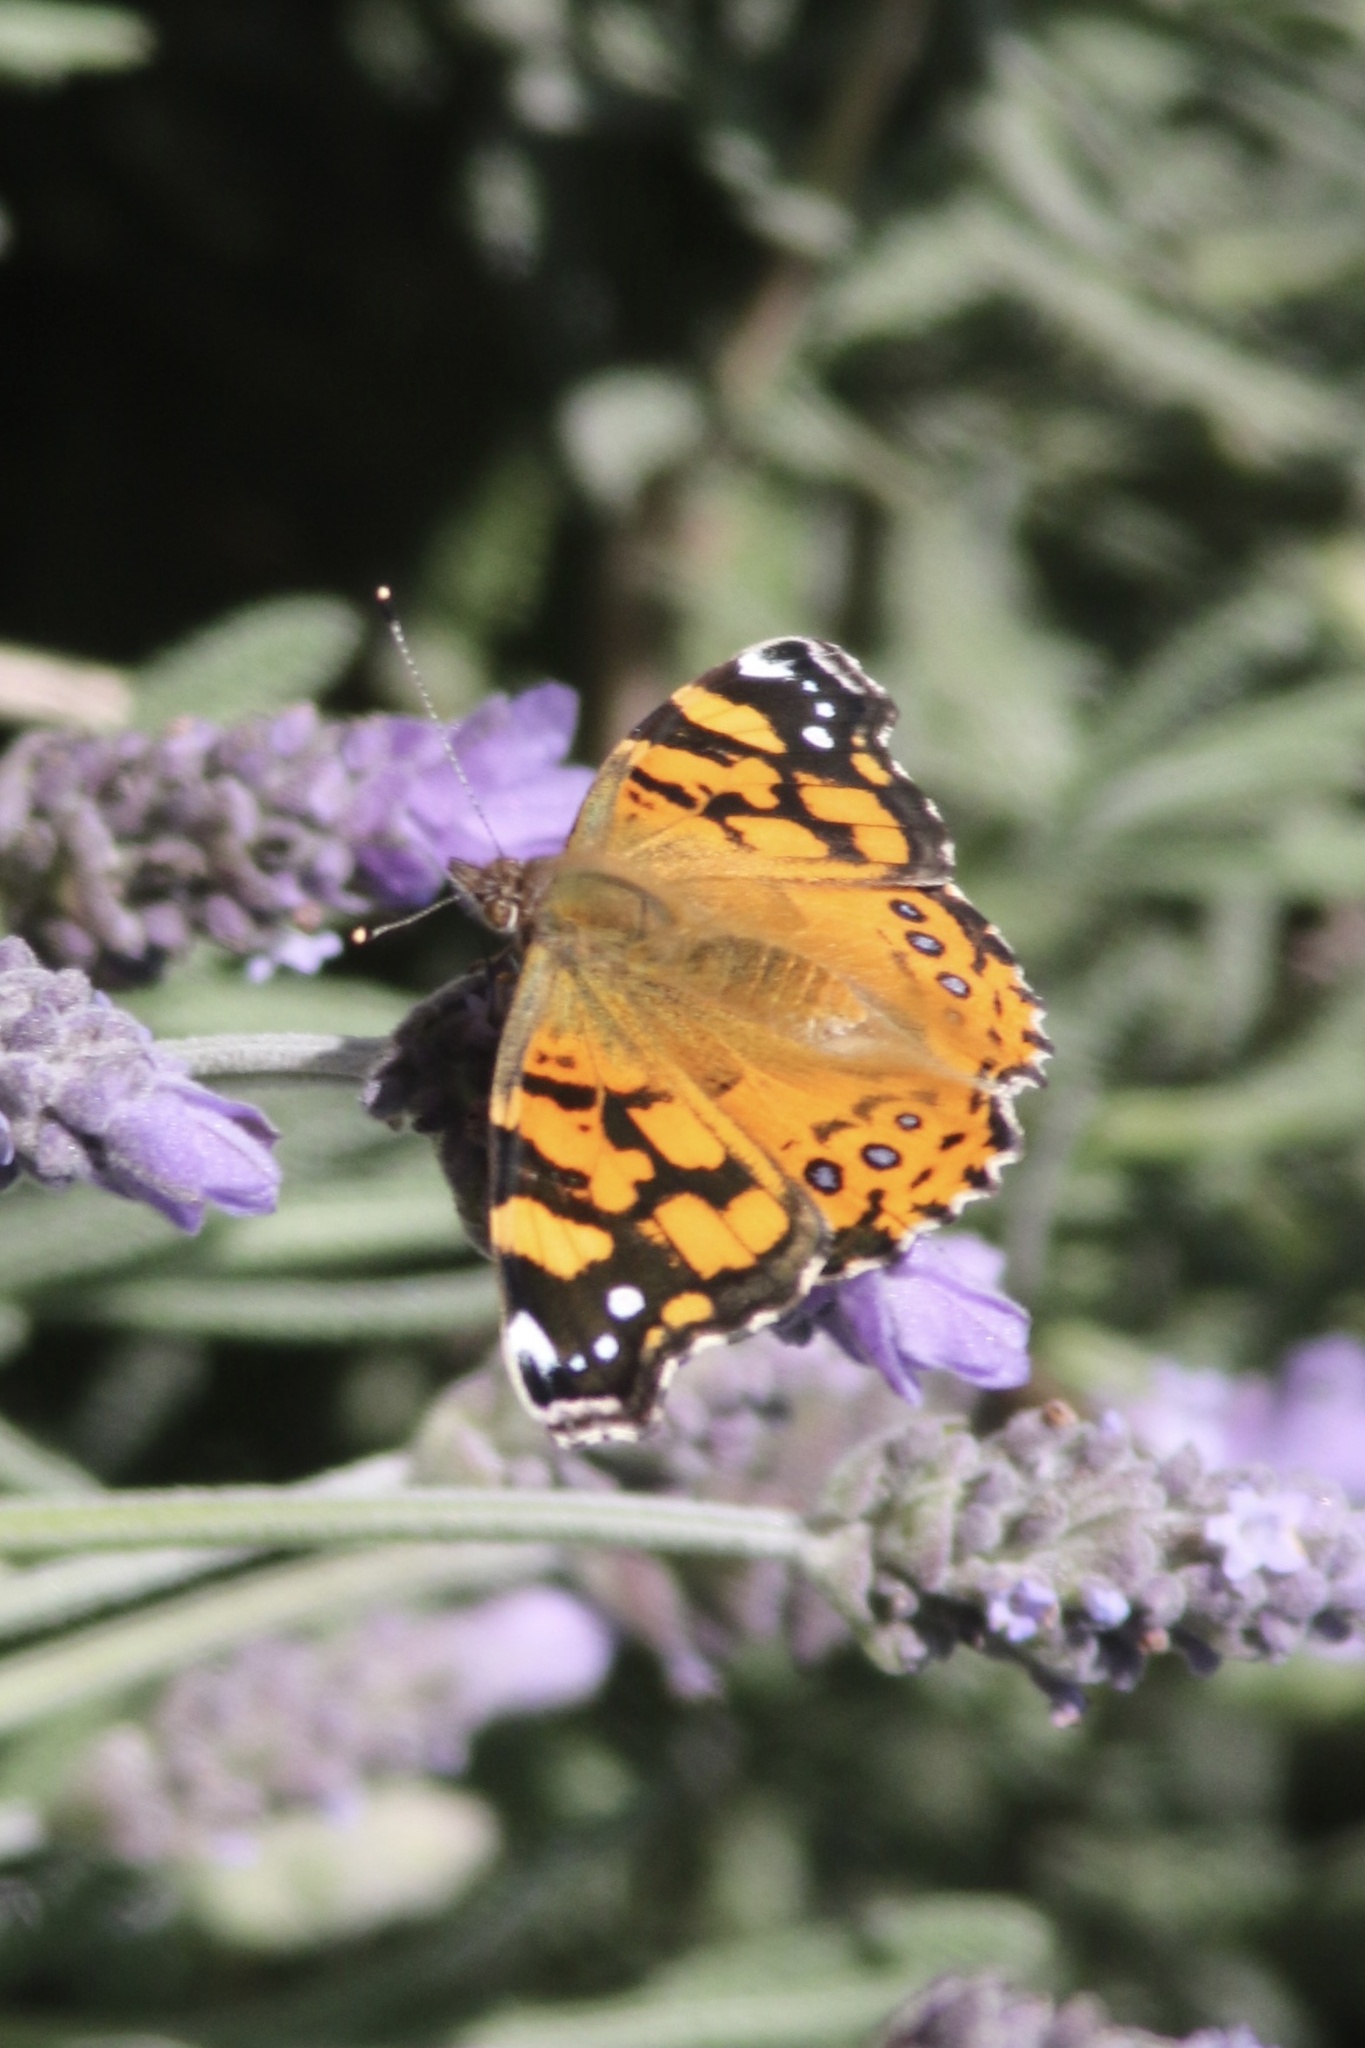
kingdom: Animalia
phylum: Arthropoda
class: Insecta
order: Lepidoptera
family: Nymphalidae
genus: Vanessa
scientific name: Vanessa annabella
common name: West coast lady
